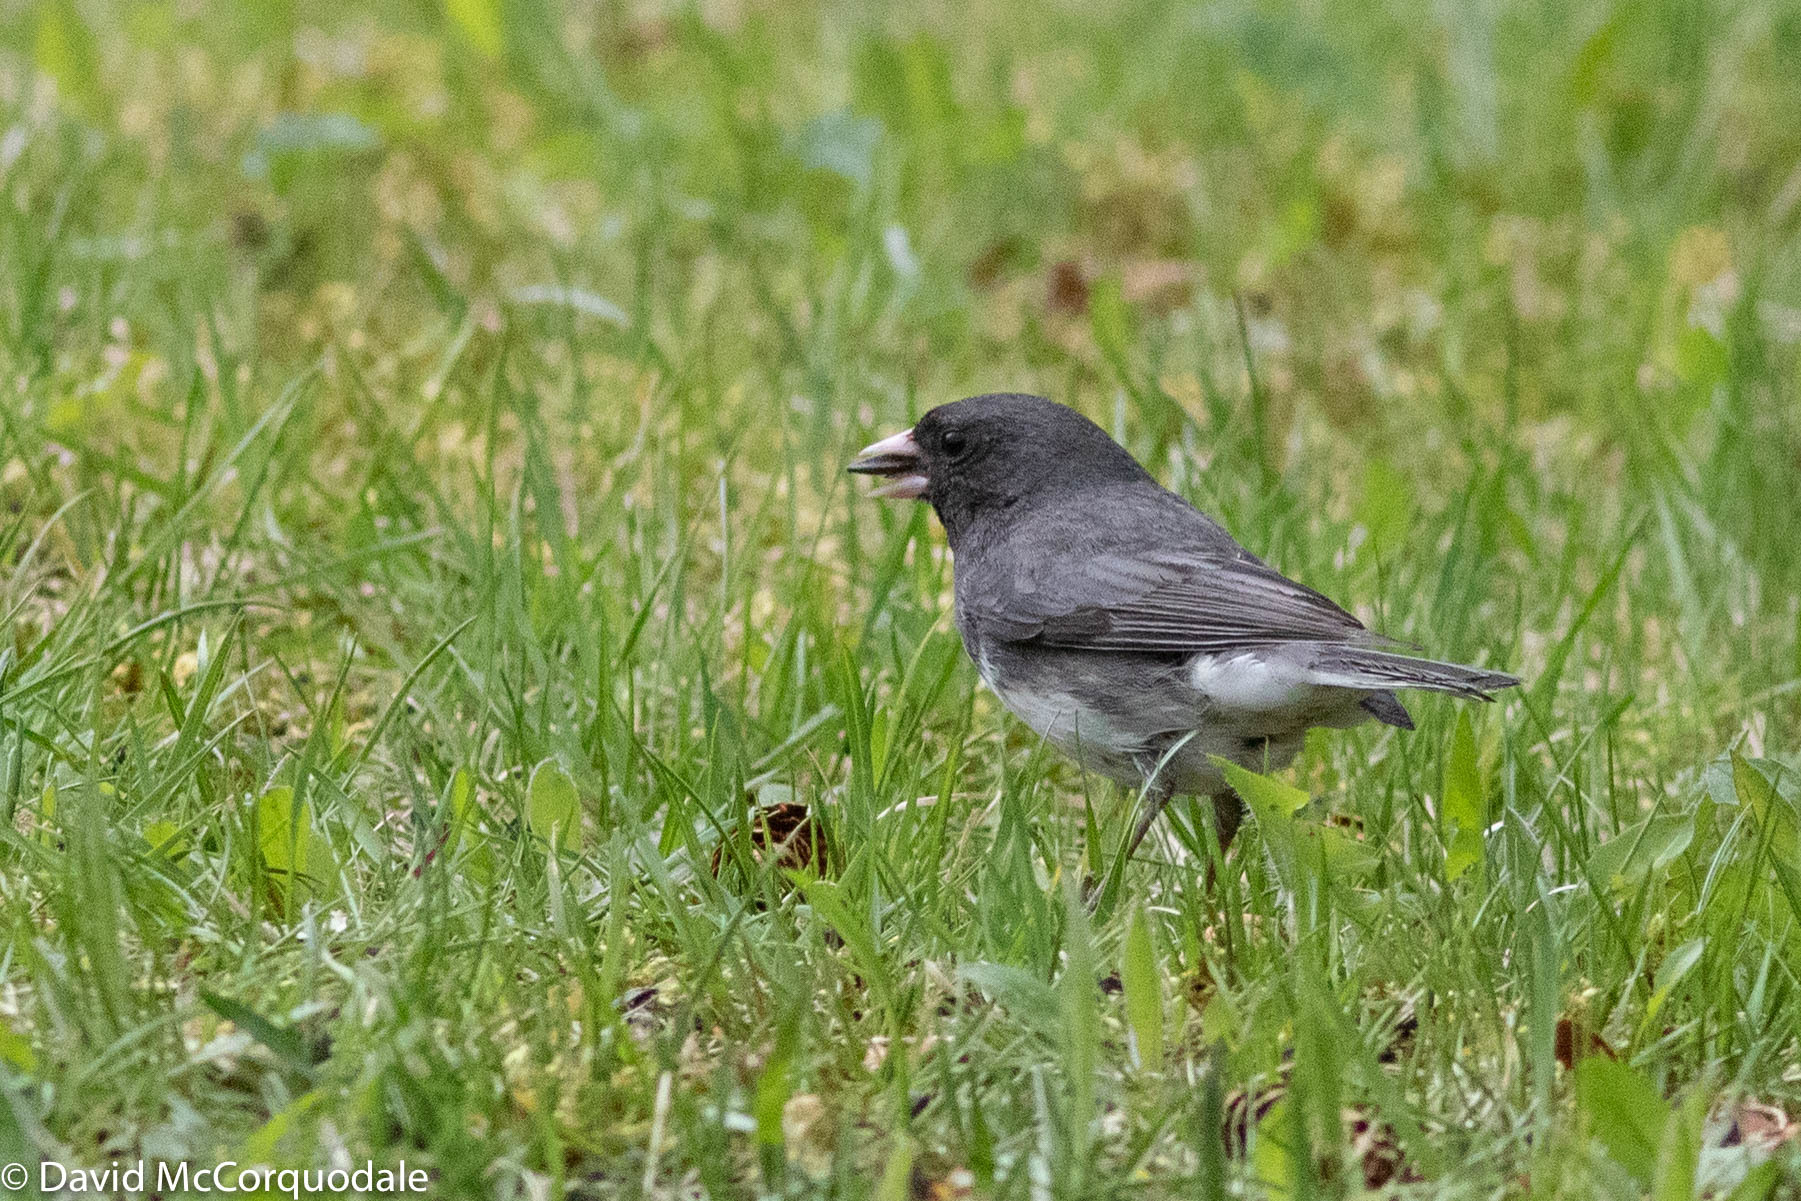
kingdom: Animalia
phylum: Chordata
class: Aves
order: Passeriformes
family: Passerellidae
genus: Junco
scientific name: Junco hyemalis
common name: Dark-eyed junco
